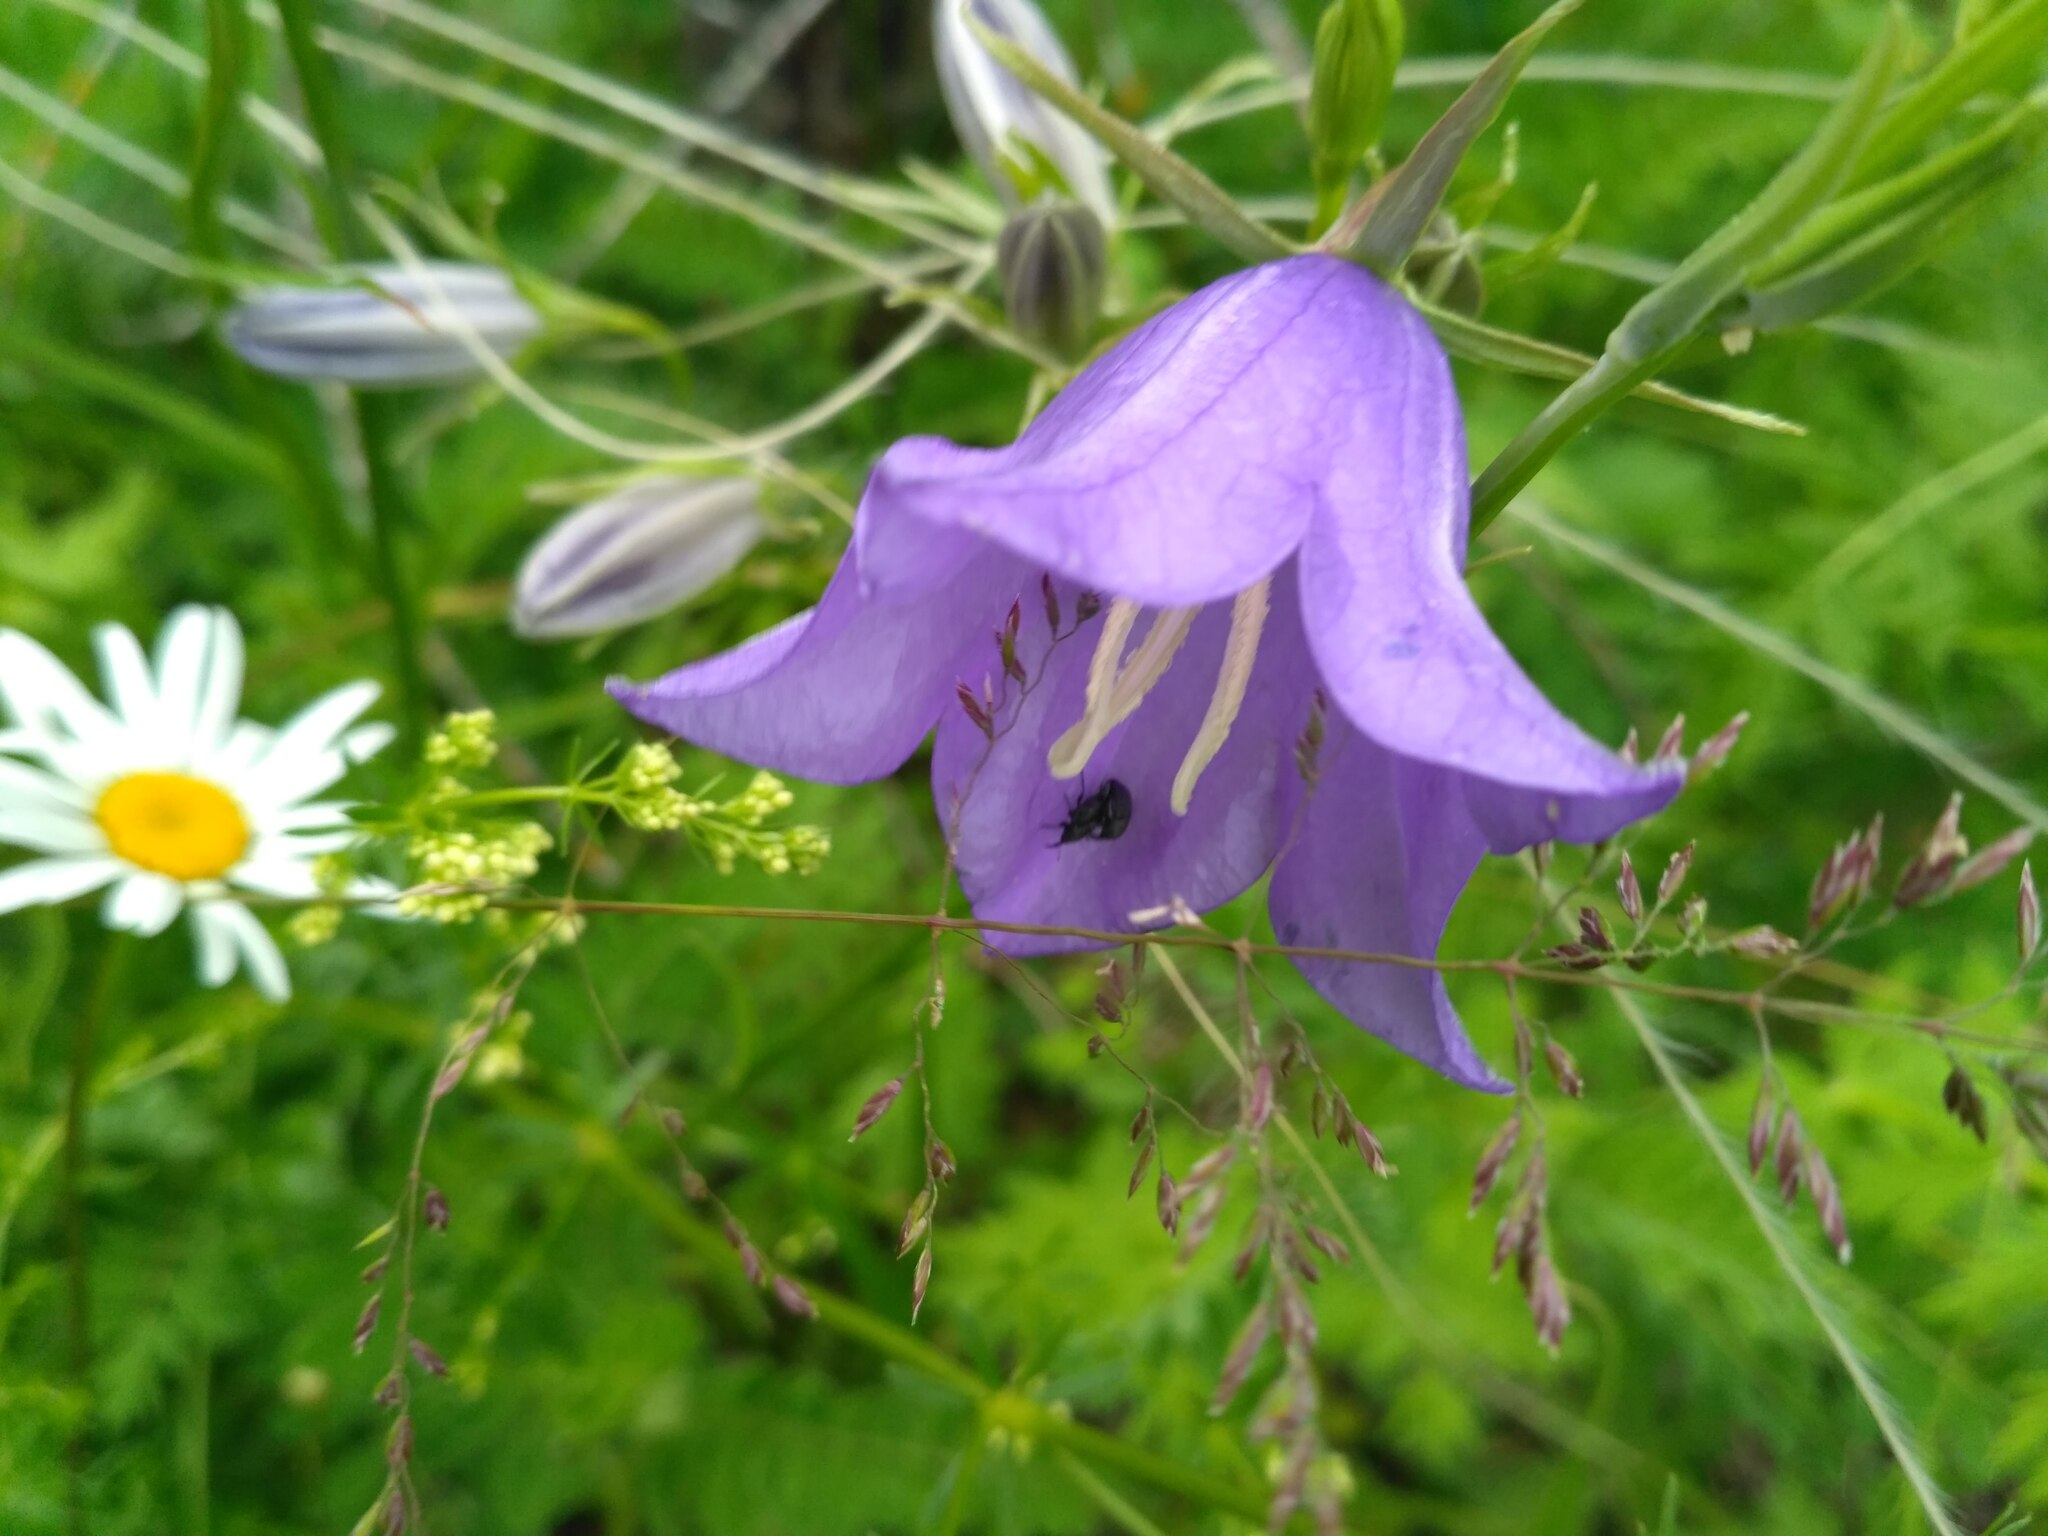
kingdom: Plantae
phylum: Tracheophyta
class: Magnoliopsida
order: Asterales
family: Campanulaceae
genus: Campanula
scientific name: Campanula persicifolia
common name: Peach-leaved bellflower
